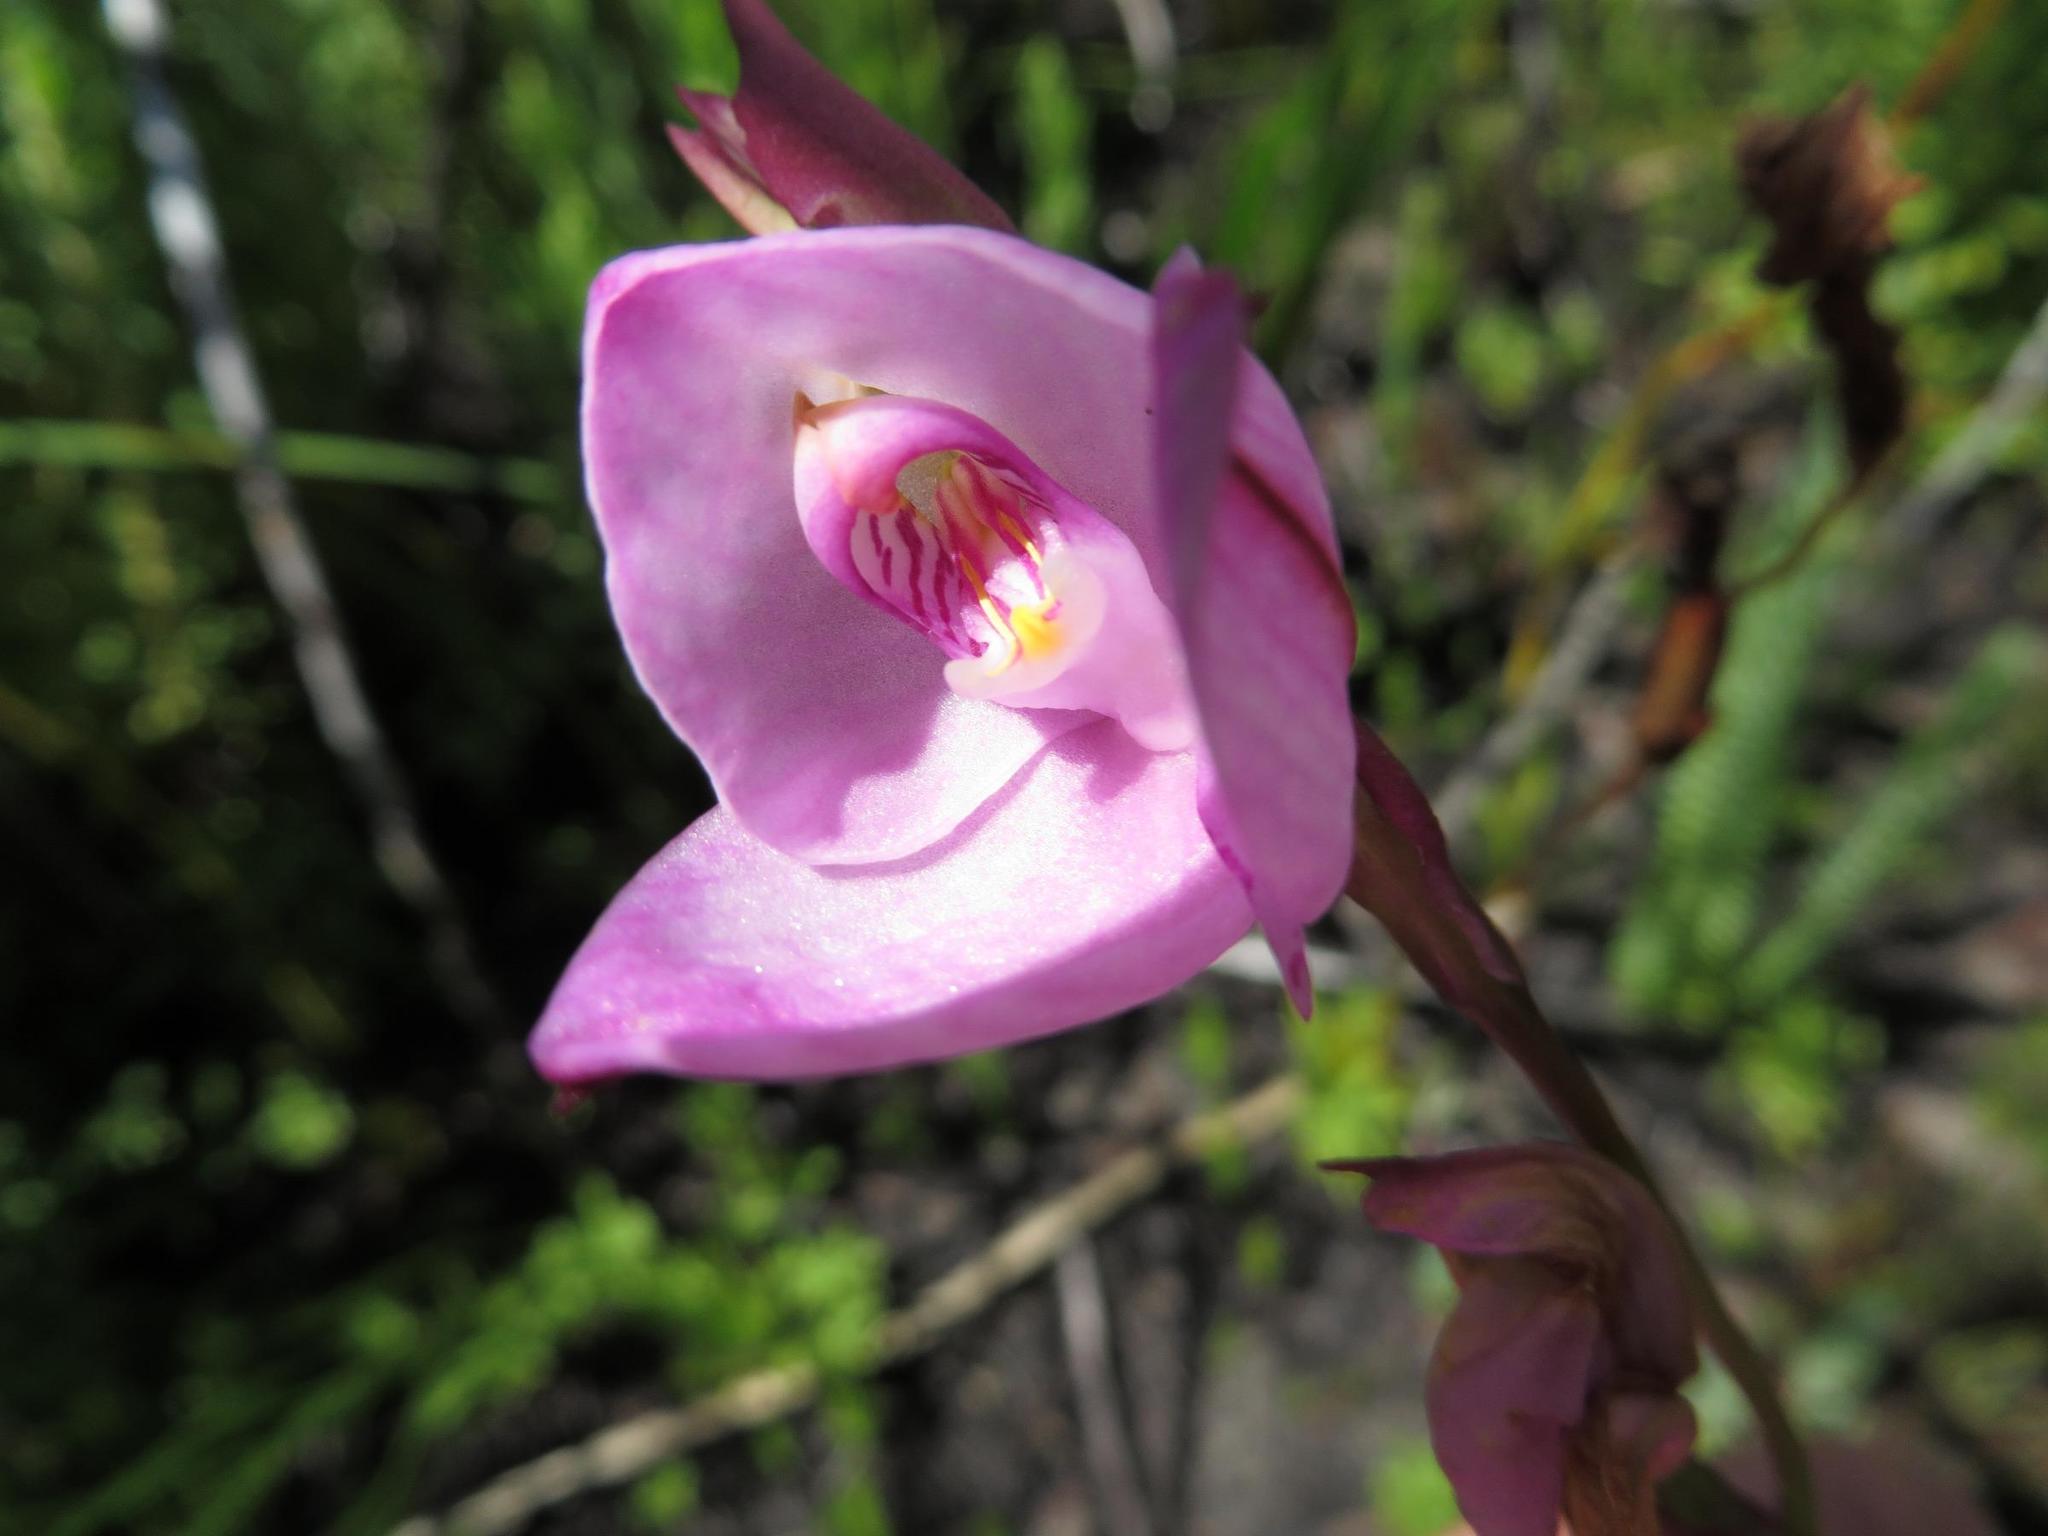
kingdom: Plantae
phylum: Tracheophyta
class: Liliopsida
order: Asparagales
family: Orchidaceae
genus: Disa
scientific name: Disa racemosa
